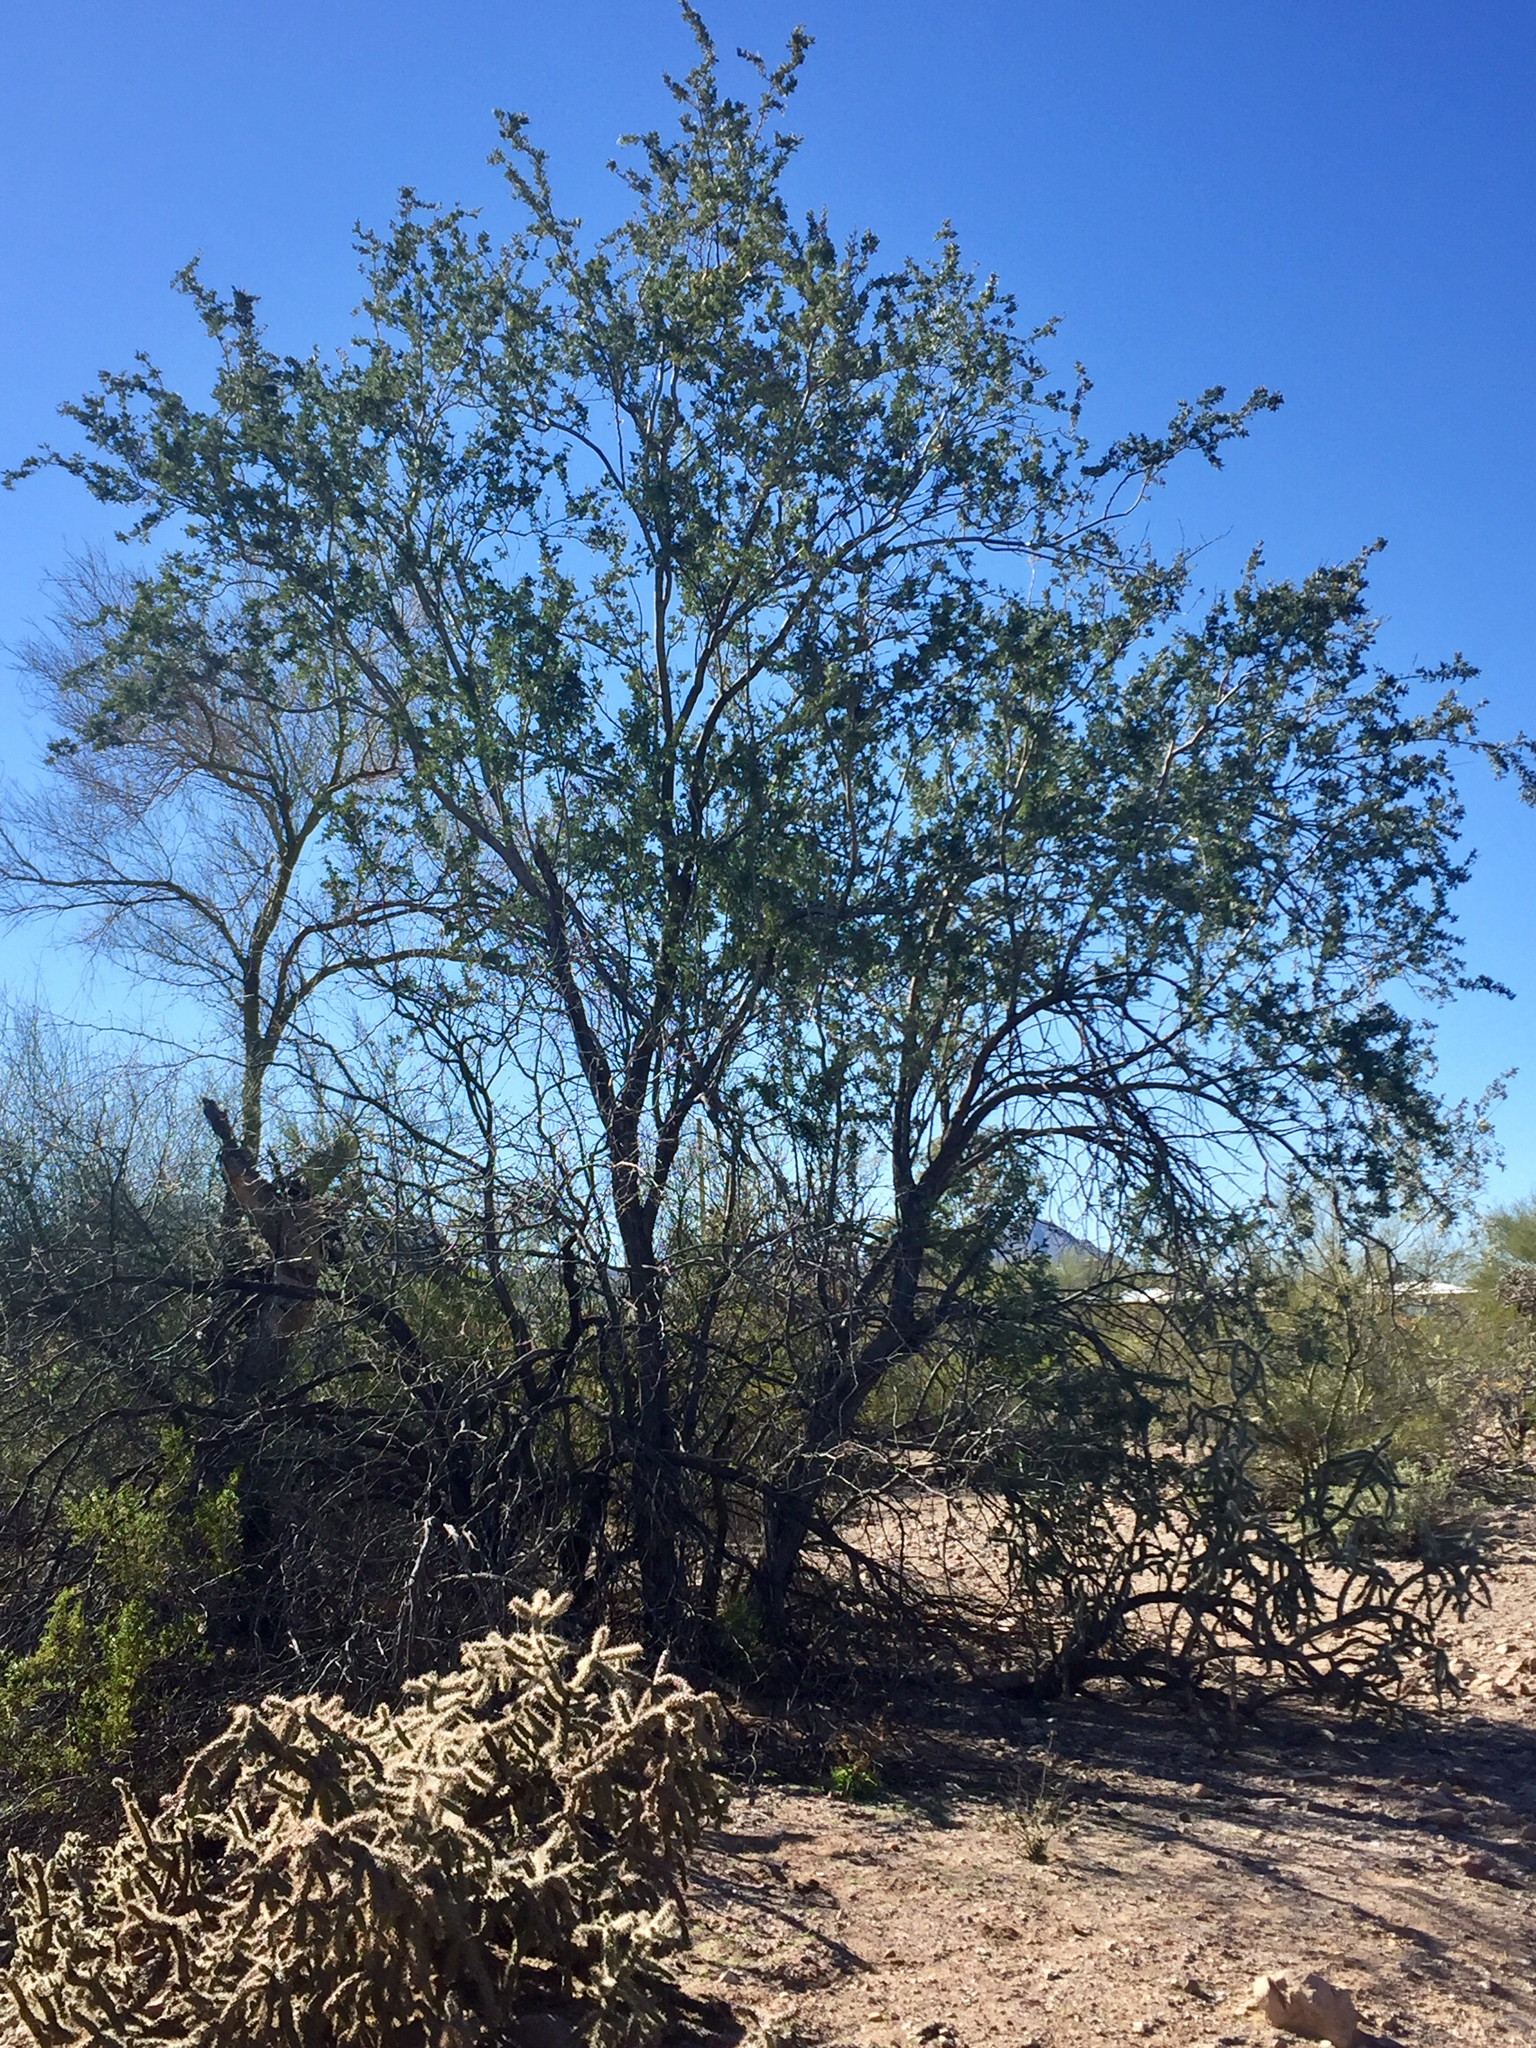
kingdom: Plantae
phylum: Tracheophyta
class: Magnoliopsida
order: Fabales
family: Fabaceae
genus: Olneya
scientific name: Olneya tesota
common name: Desert ironwood
